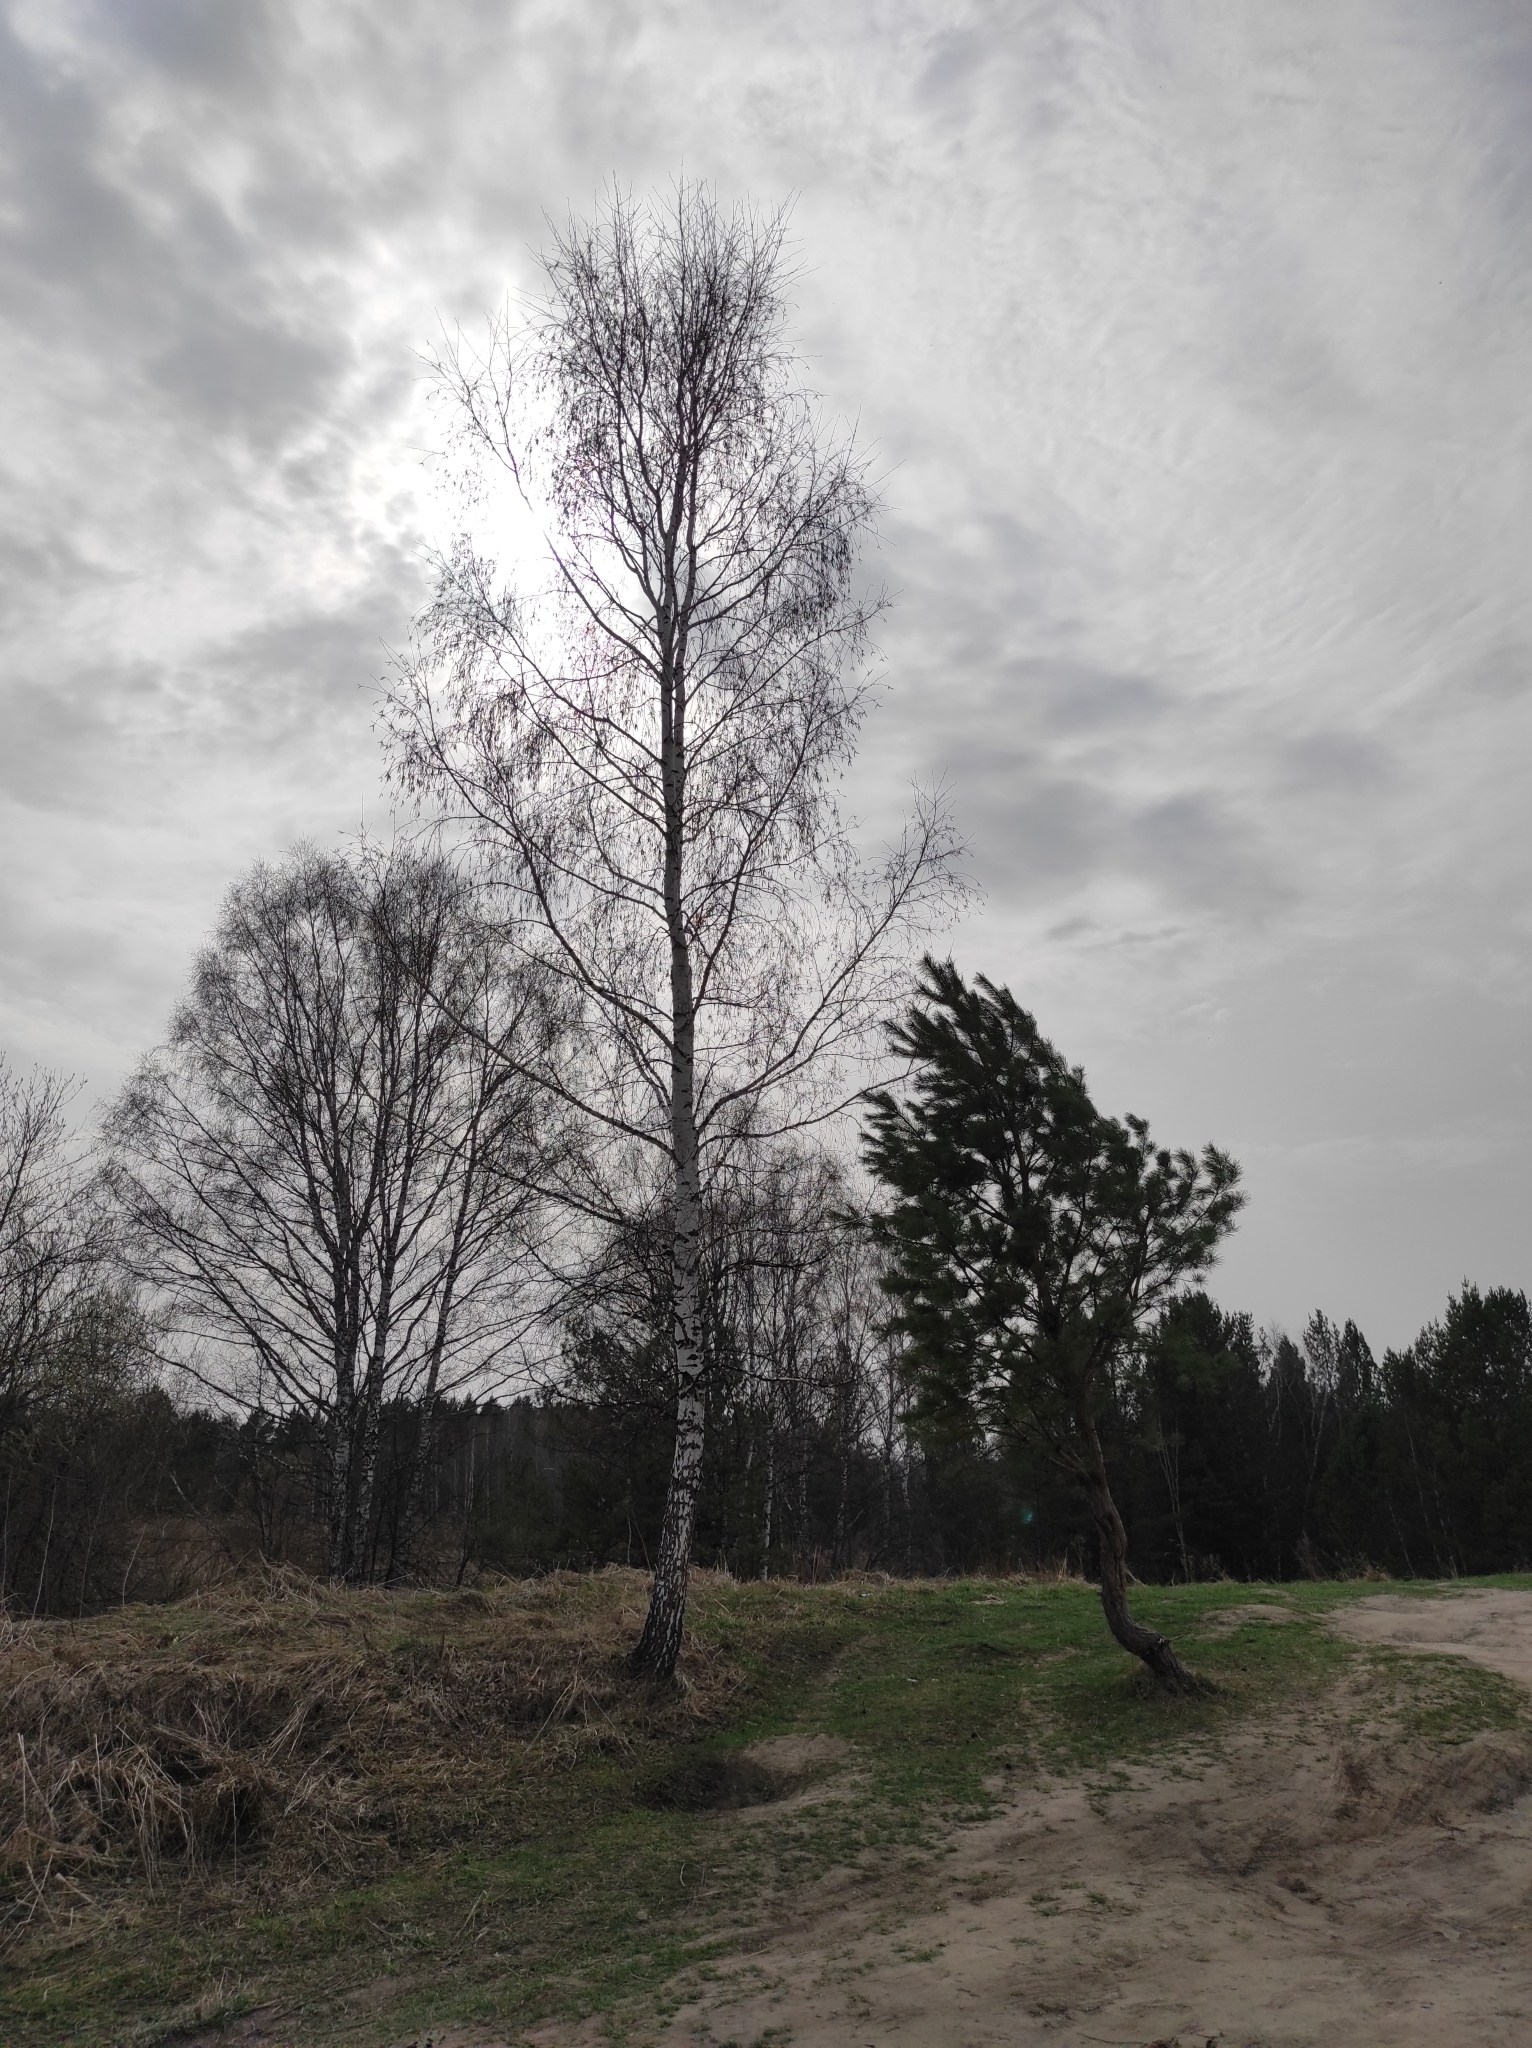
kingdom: Plantae
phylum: Tracheophyta
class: Pinopsida
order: Pinales
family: Pinaceae
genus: Pinus
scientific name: Pinus sylvestris
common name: Scots pine
